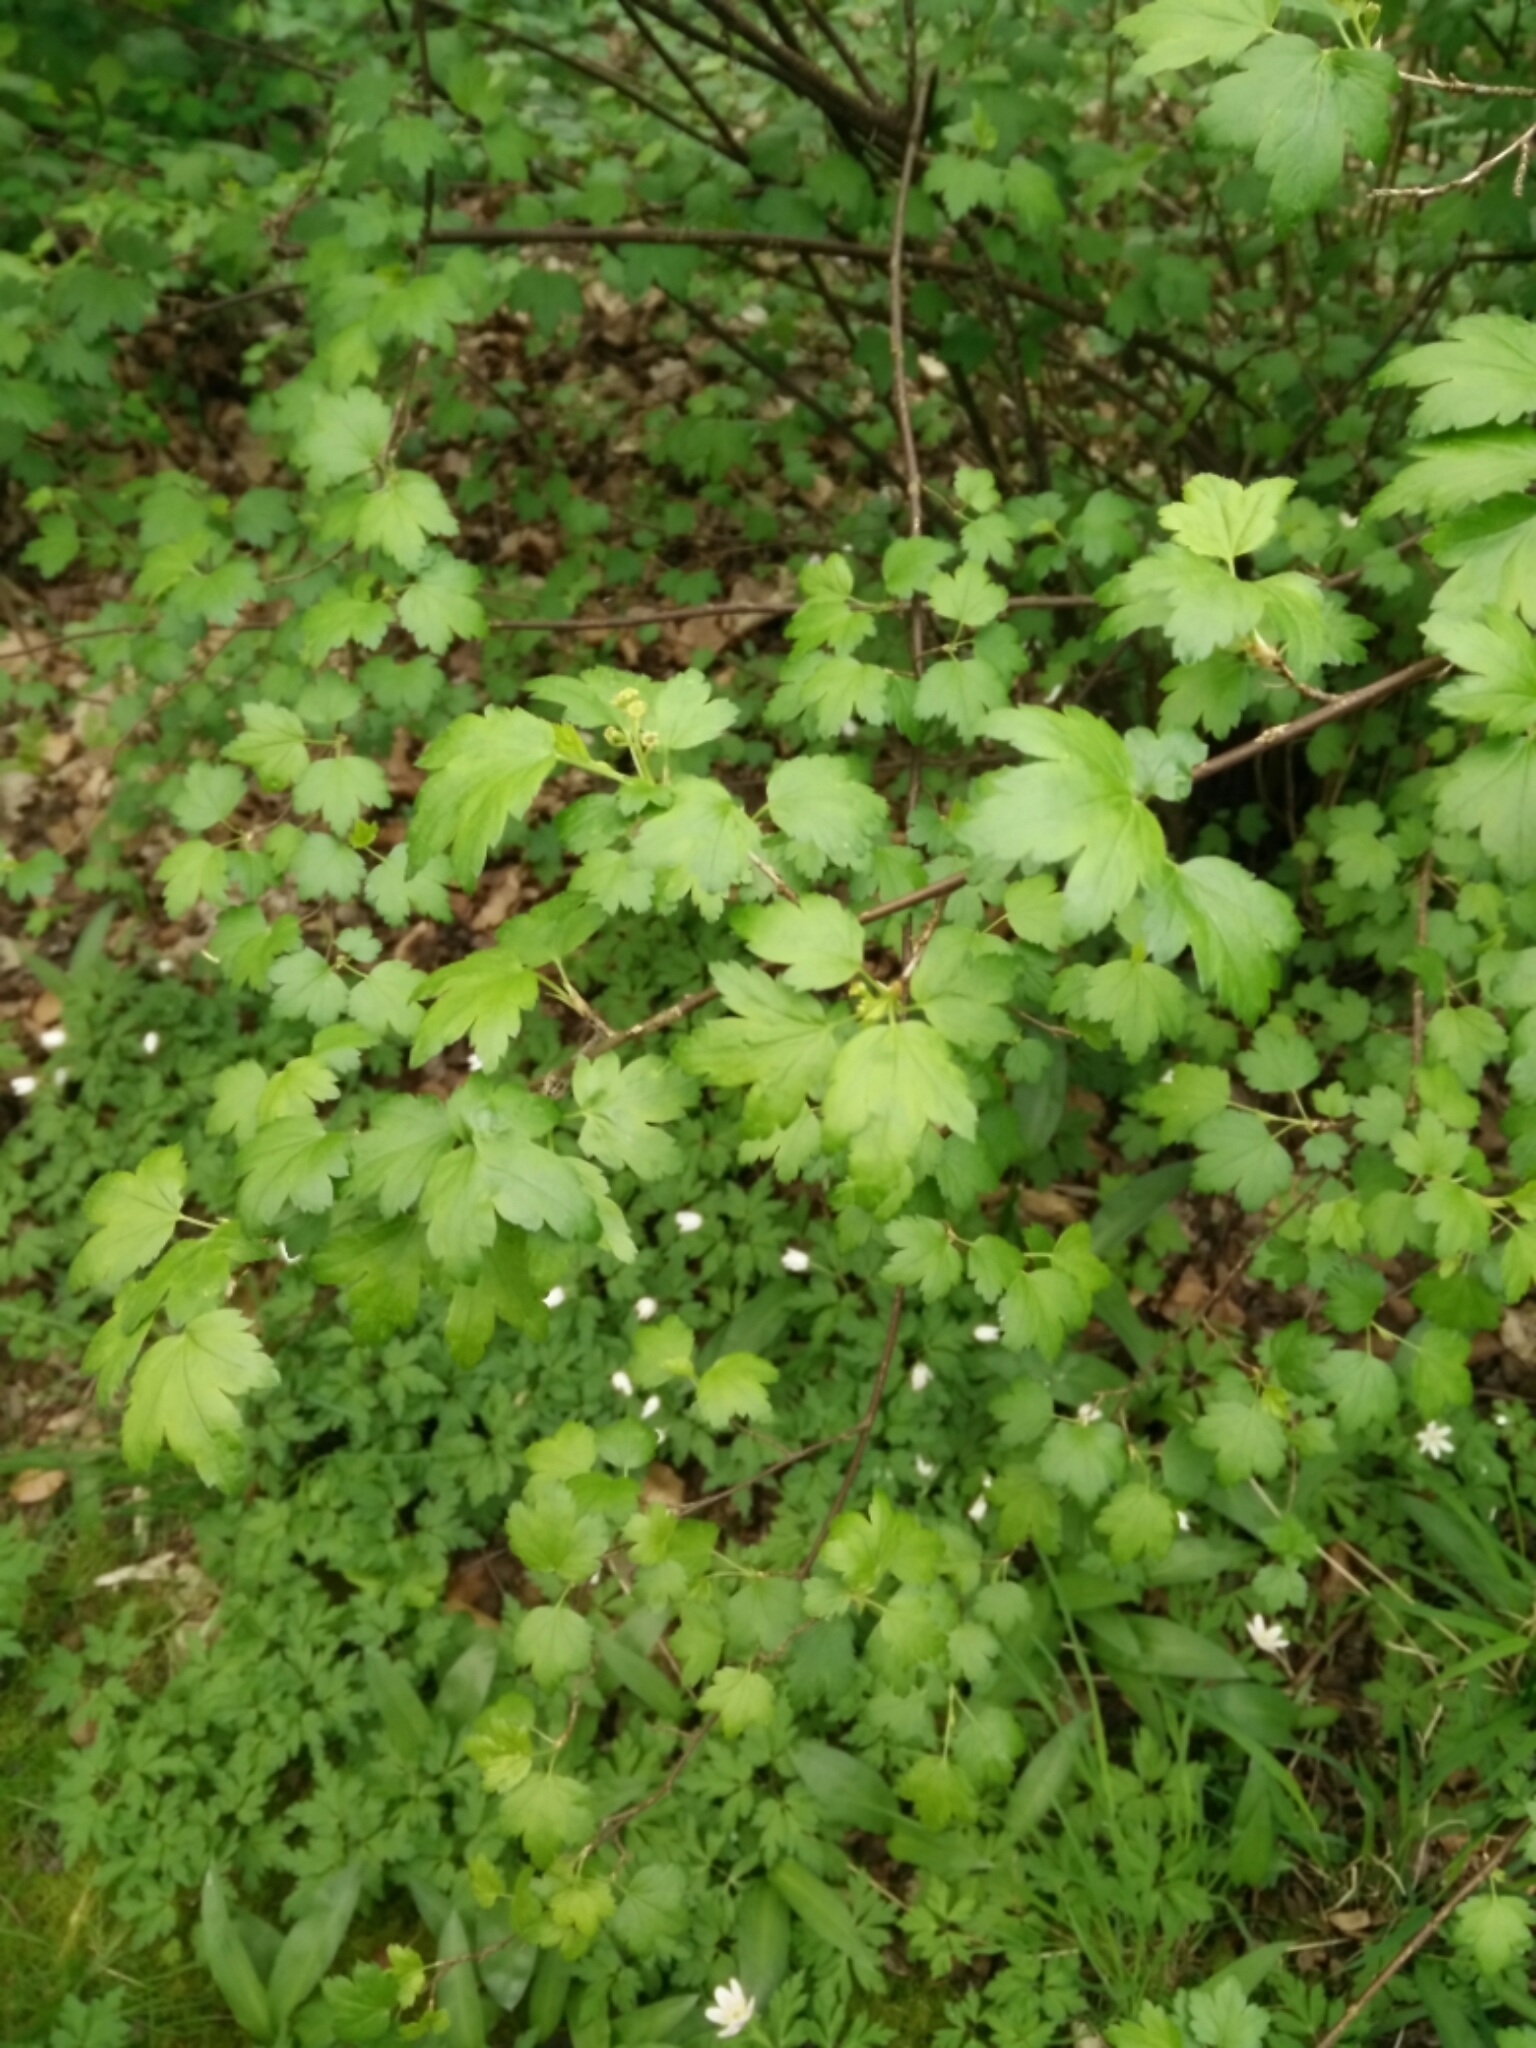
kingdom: Plantae
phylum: Tracheophyta
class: Magnoliopsida
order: Saxifragales
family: Grossulariaceae
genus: Ribes
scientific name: Ribes alpinum
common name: Alpine currant
